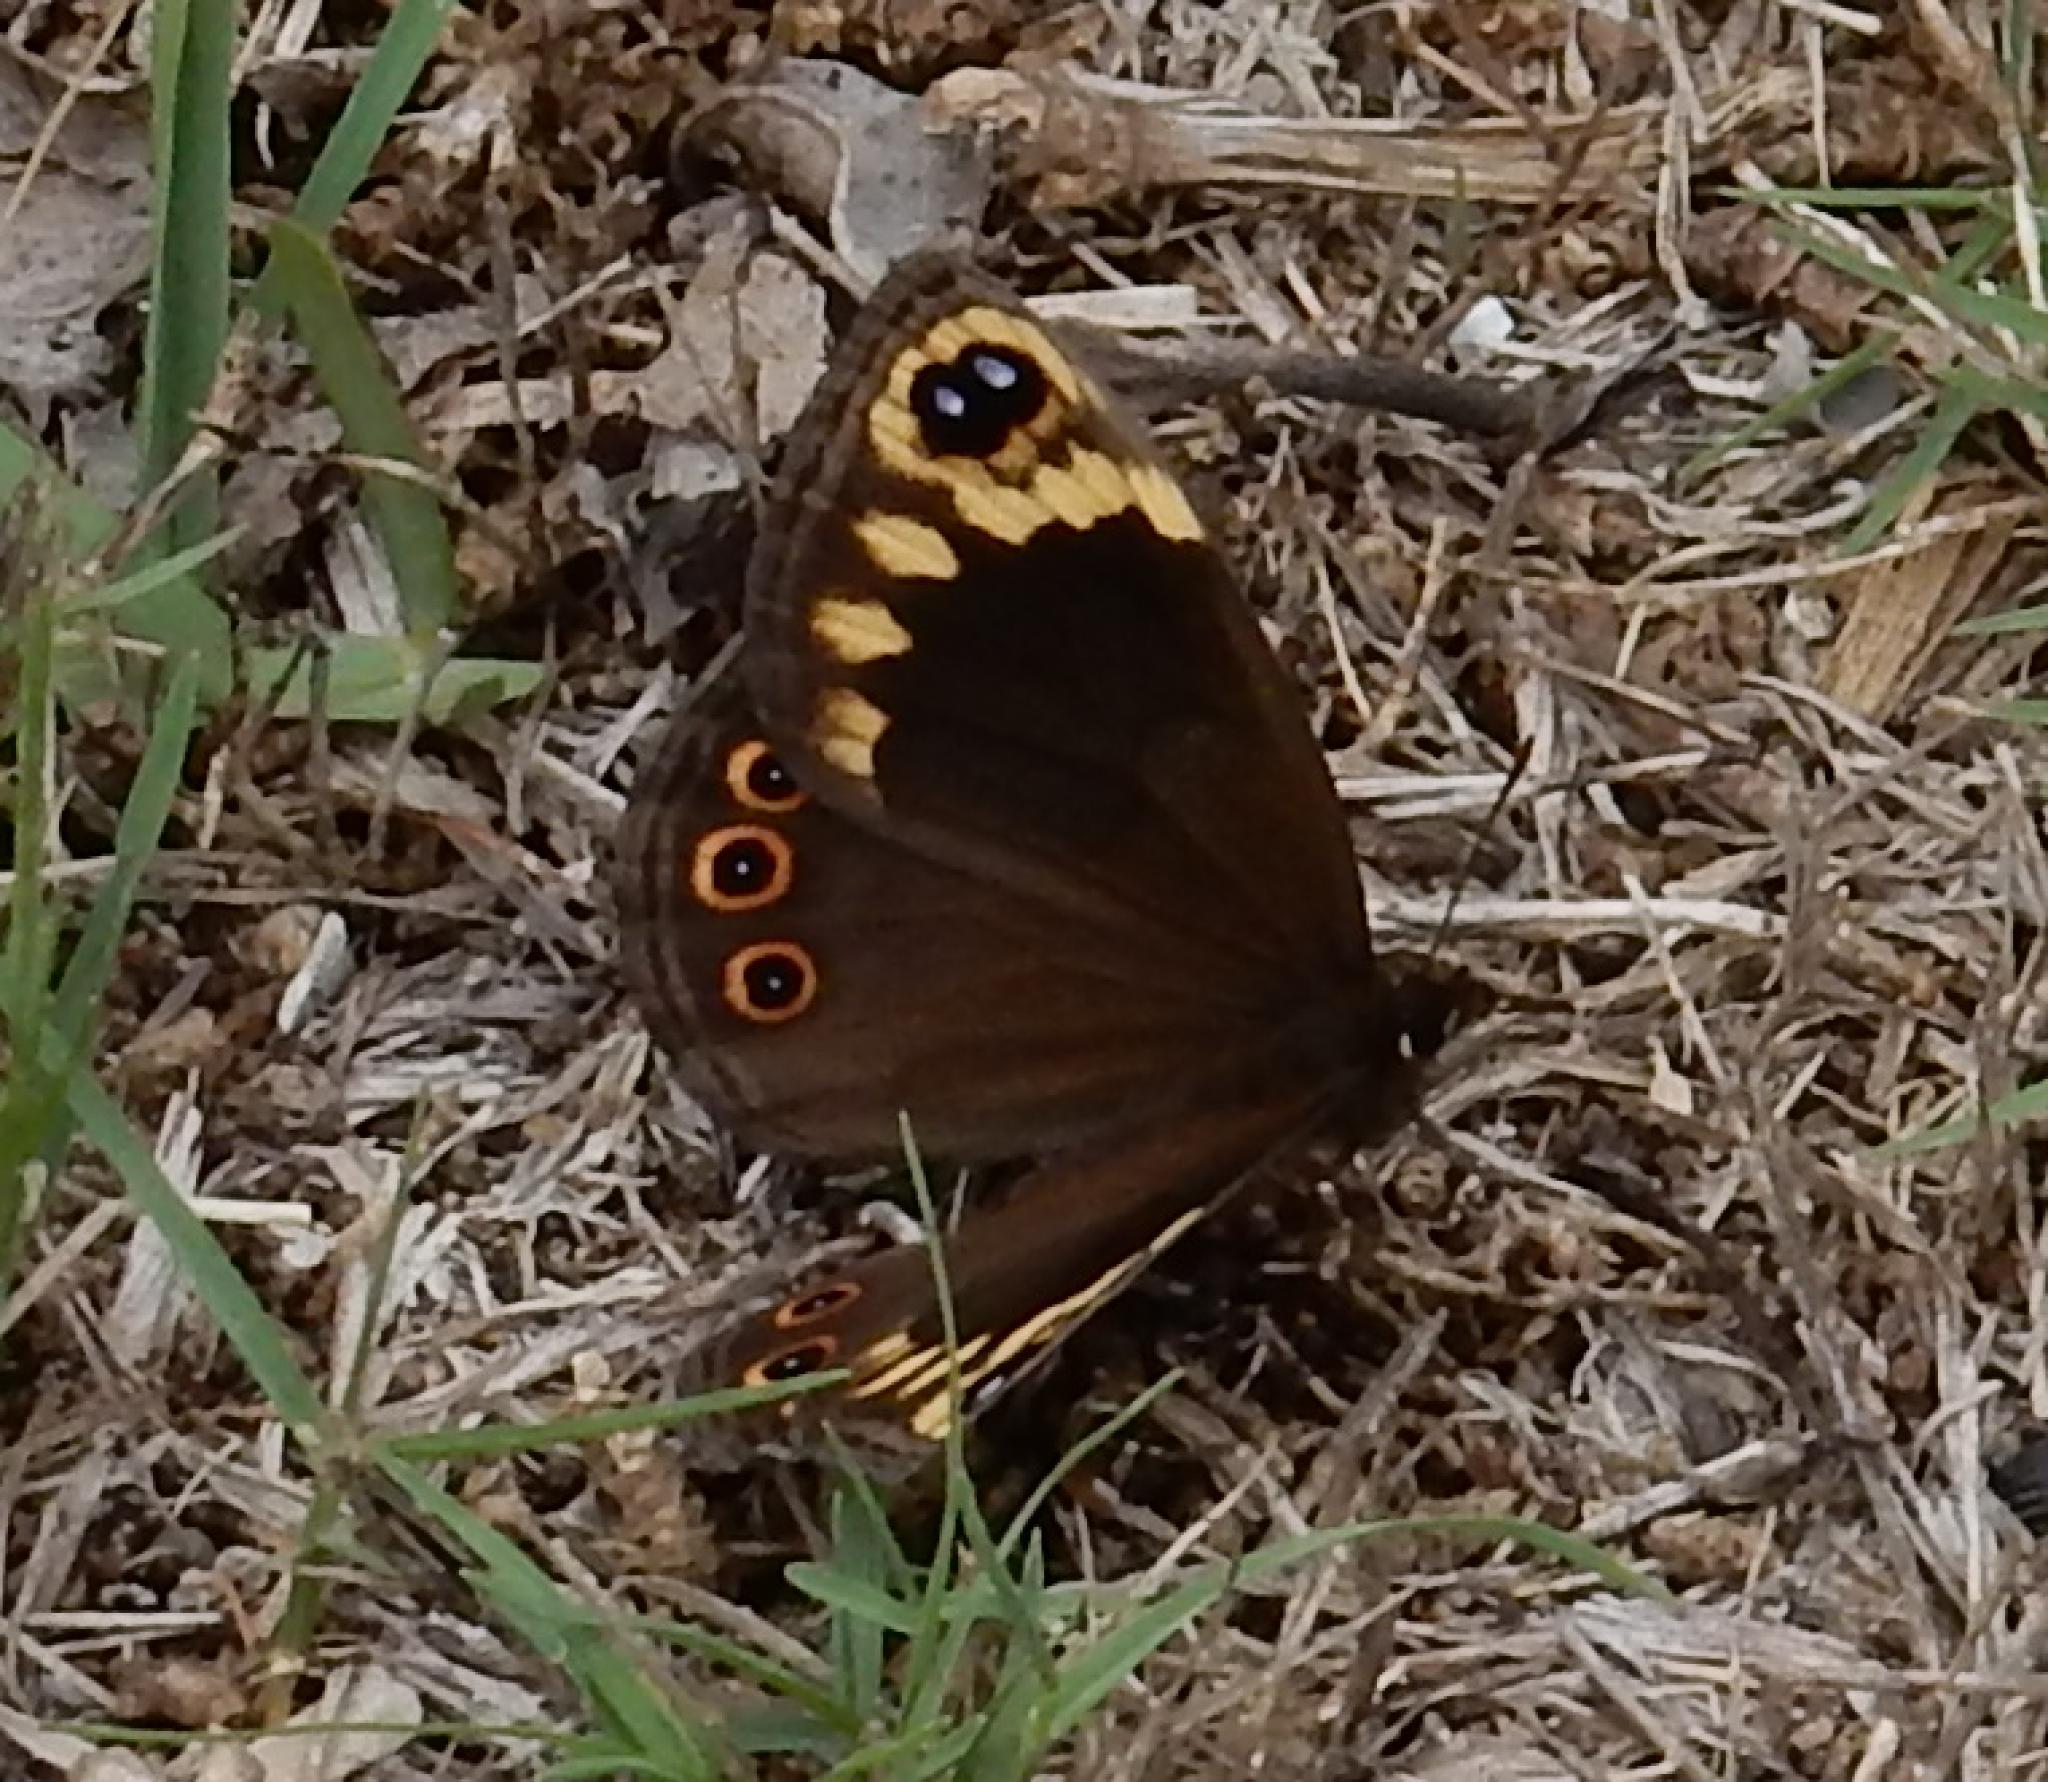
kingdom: Animalia
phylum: Arthropoda
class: Insecta
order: Lepidoptera
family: Nymphalidae
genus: Dira
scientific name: Dira clytus
